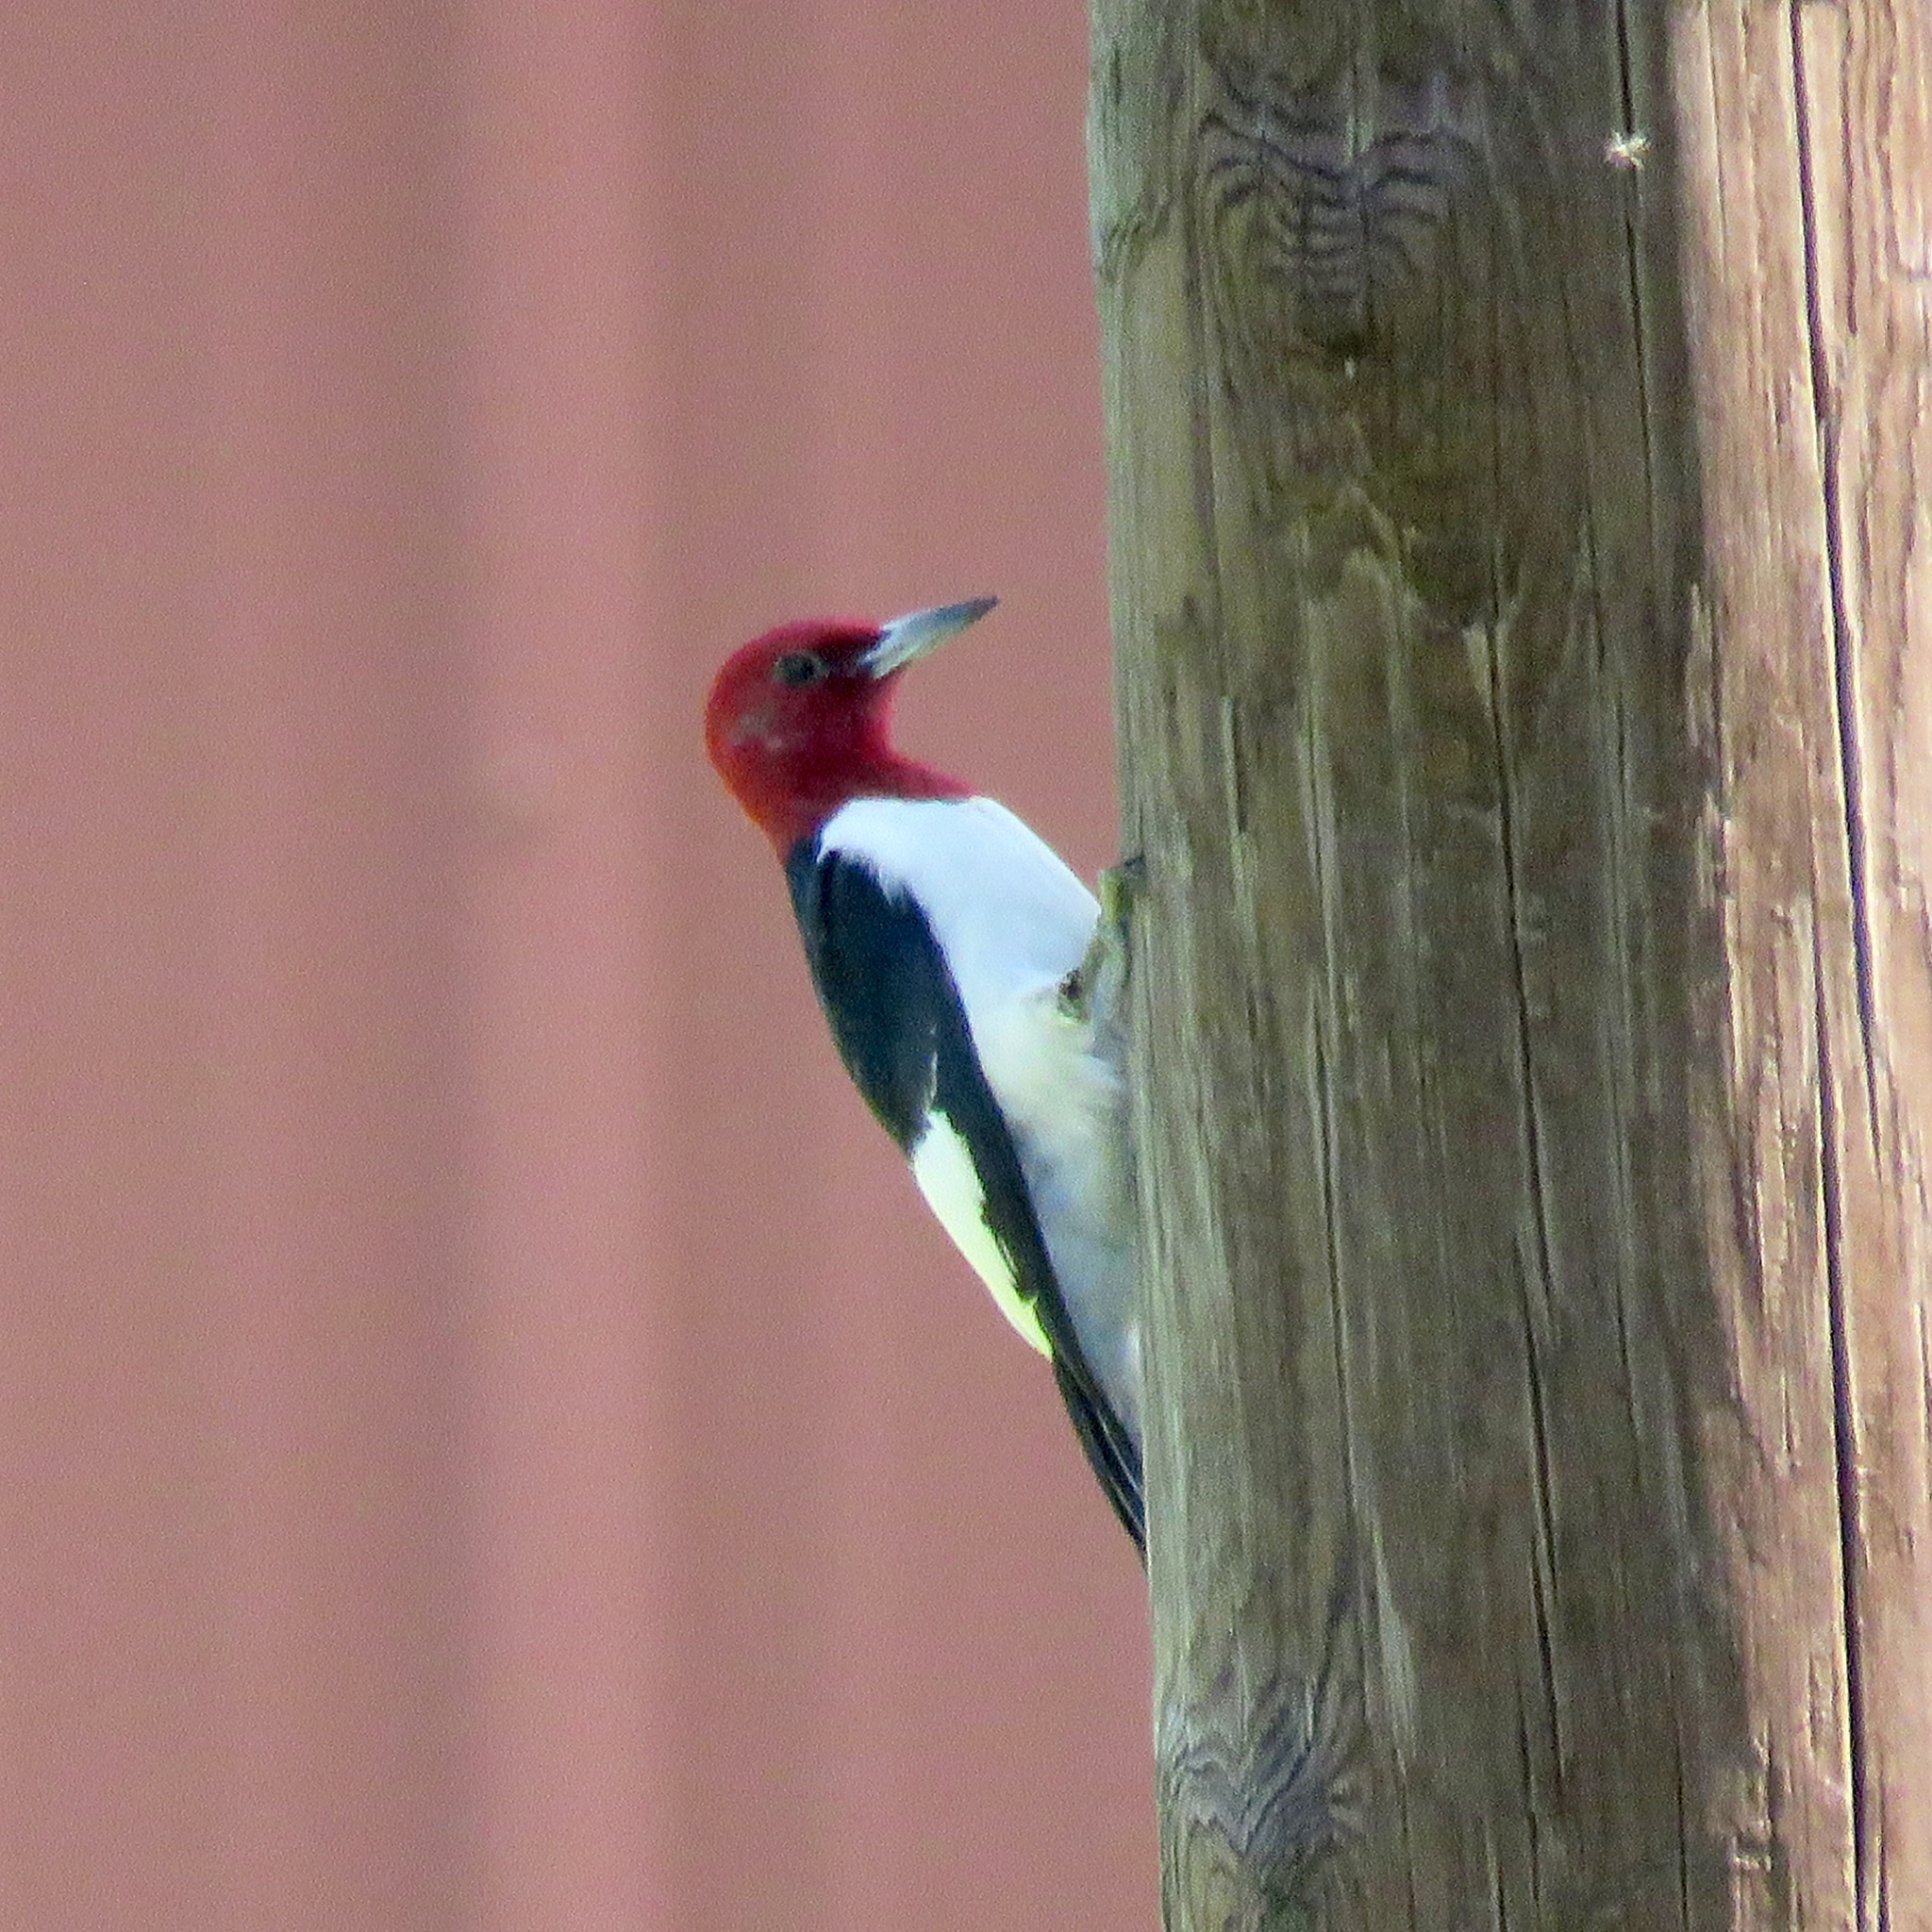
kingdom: Animalia
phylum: Chordata
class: Aves
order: Piciformes
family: Picidae
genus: Melanerpes
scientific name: Melanerpes erythrocephalus
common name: Red-headed woodpecker
